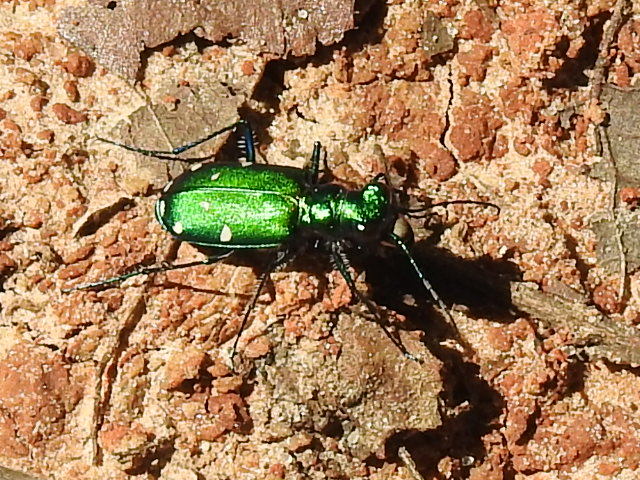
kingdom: Animalia
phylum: Arthropoda
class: Insecta
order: Coleoptera
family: Carabidae
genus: Cicindela
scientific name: Cicindela sexguttata
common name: Six-spotted tiger beetle
